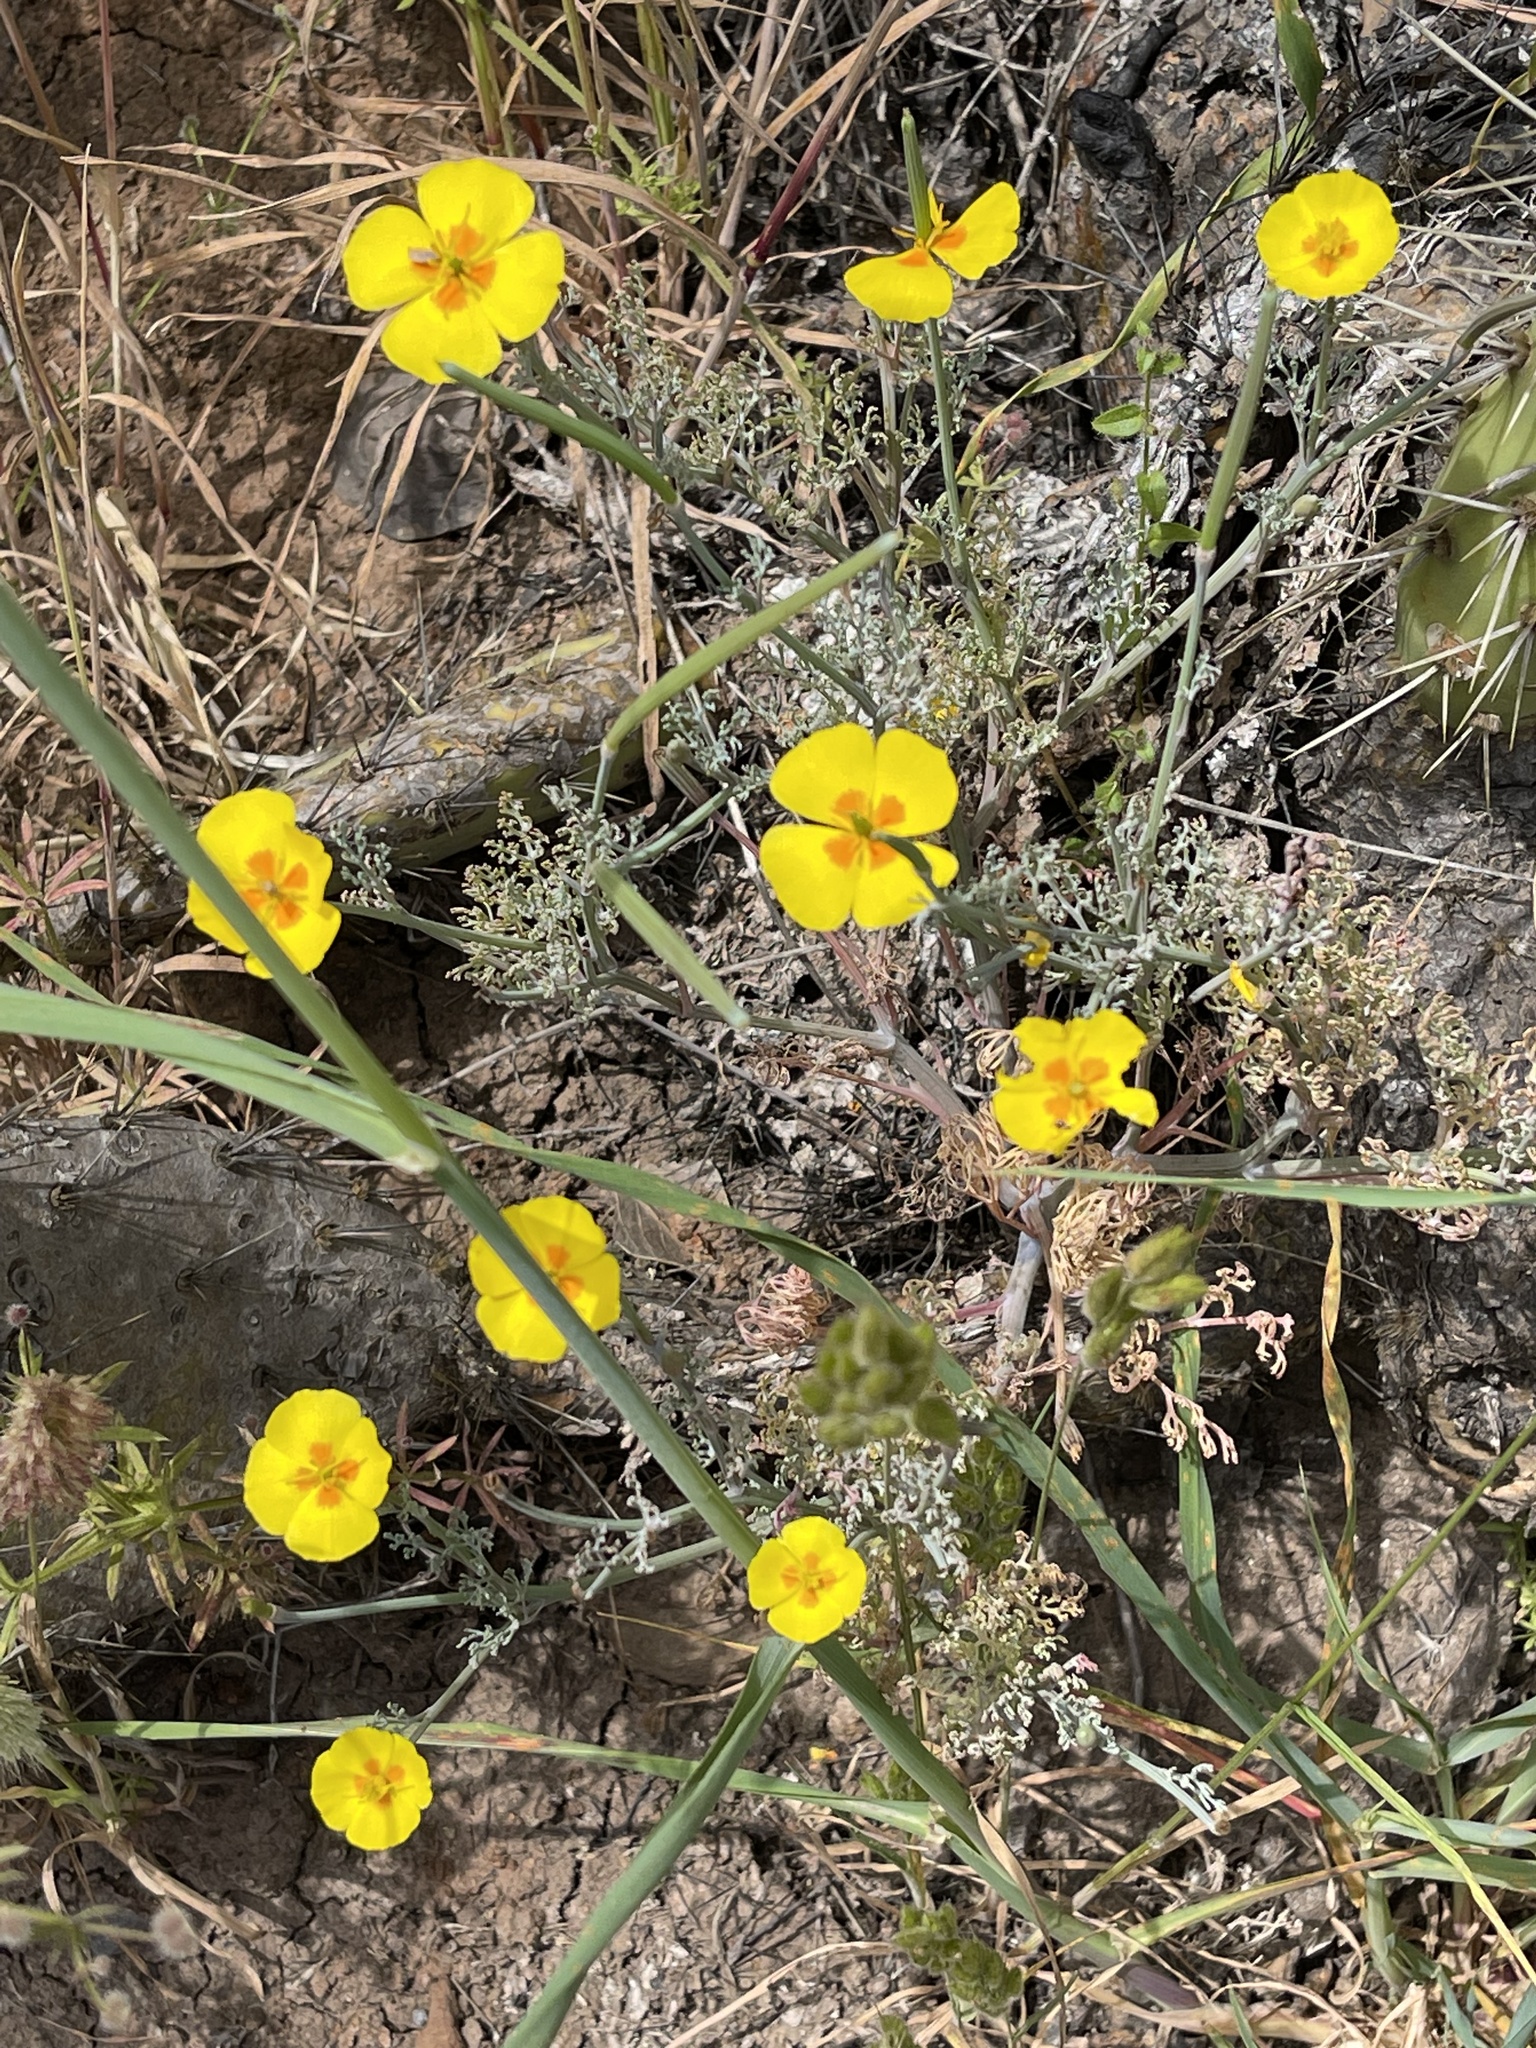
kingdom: Plantae
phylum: Tracheophyta
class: Magnoliopsida
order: Ranunculales
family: Papaveraceae
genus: Eschscholzia
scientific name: Eschscholzia ramosa
